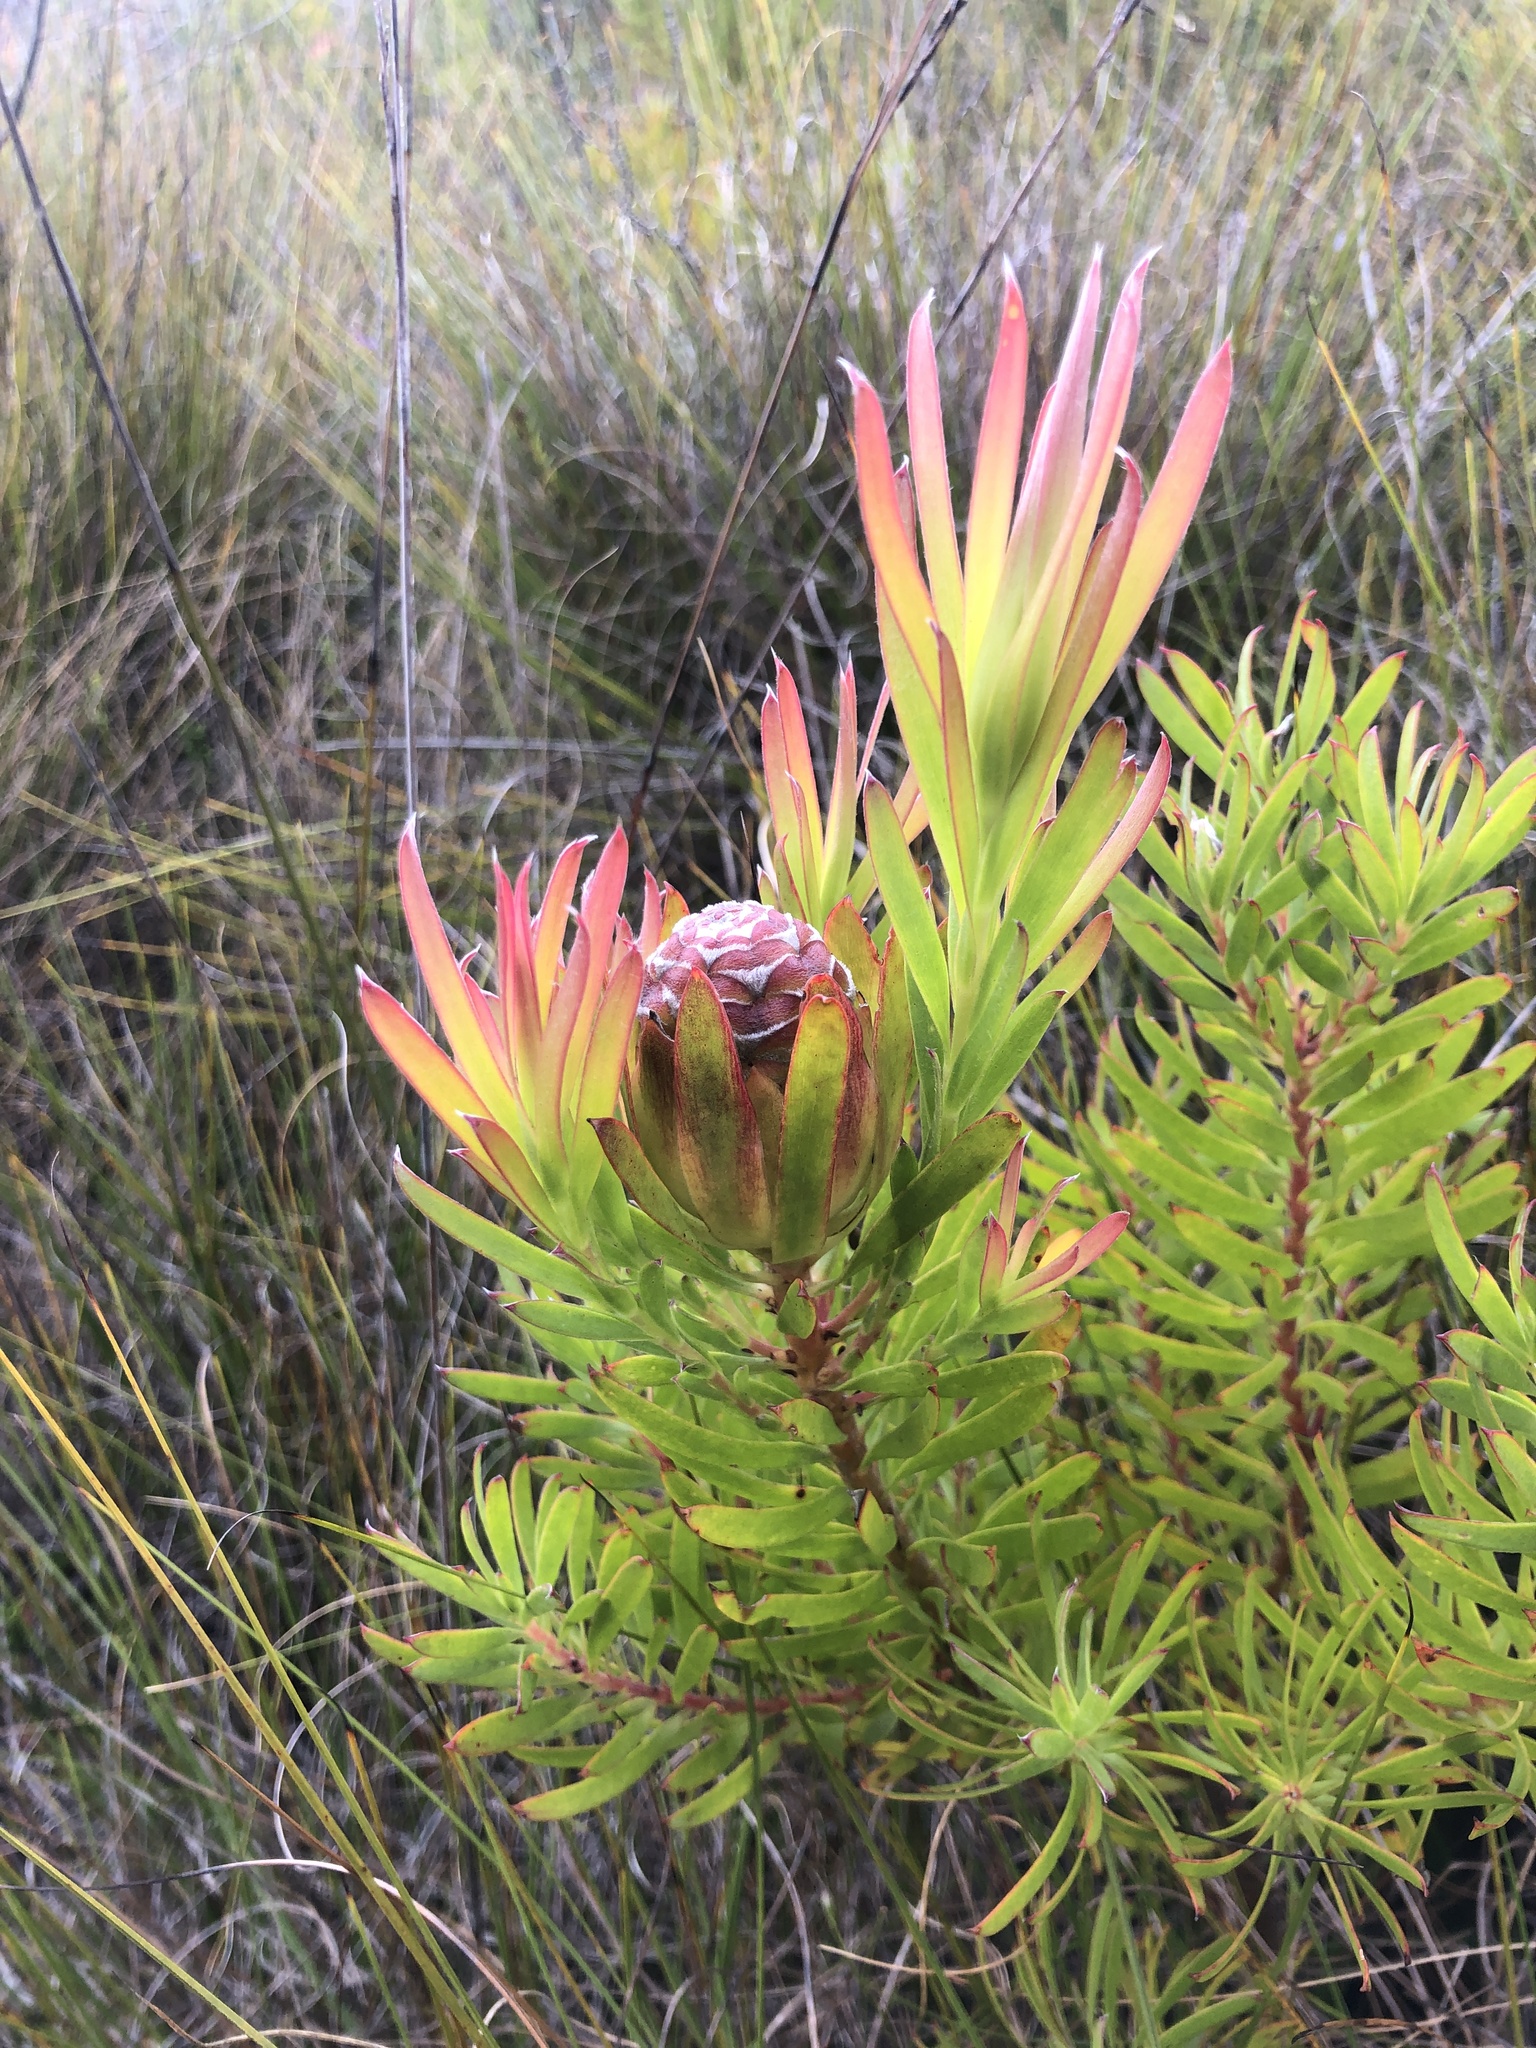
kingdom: Plantae
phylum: Tracheophyta
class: Magnoliopsida
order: Proteales
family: Proteaceae
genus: Leucadendron
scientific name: Leucadendron xanthoconus
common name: Sickle-leaf conebush
